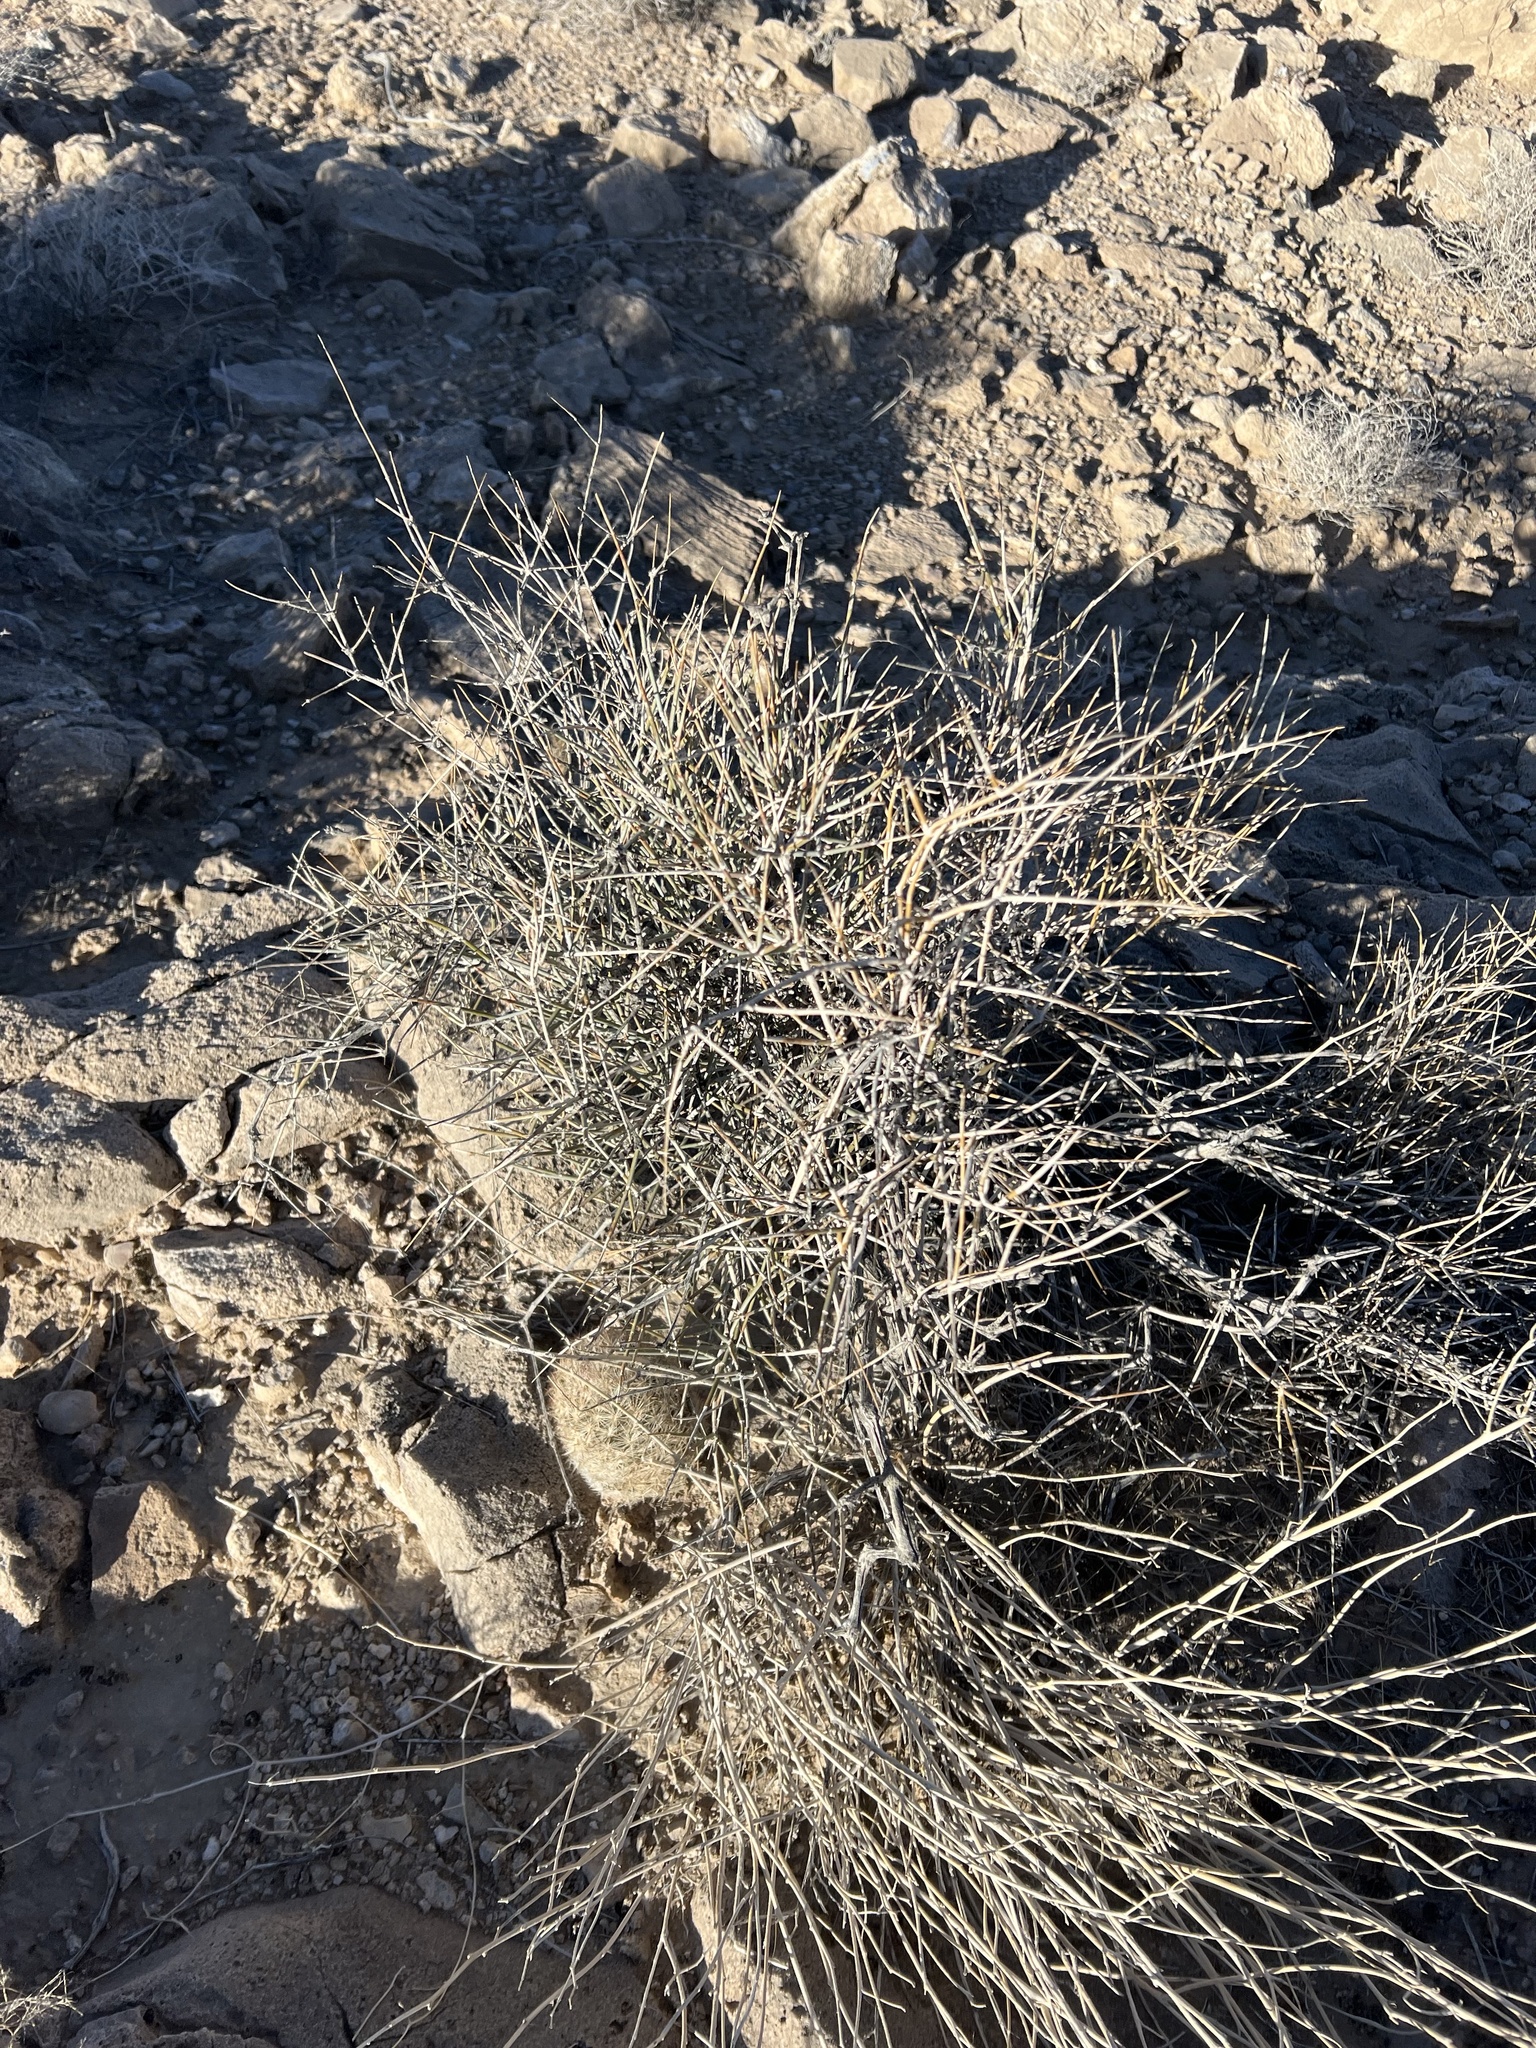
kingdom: Plantae
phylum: Tracheophyta
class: Gnetopsida
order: Ephedrales
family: Ephedraceae
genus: Ephedra
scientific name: Ephedra nevadensis
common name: Gray ephedra
